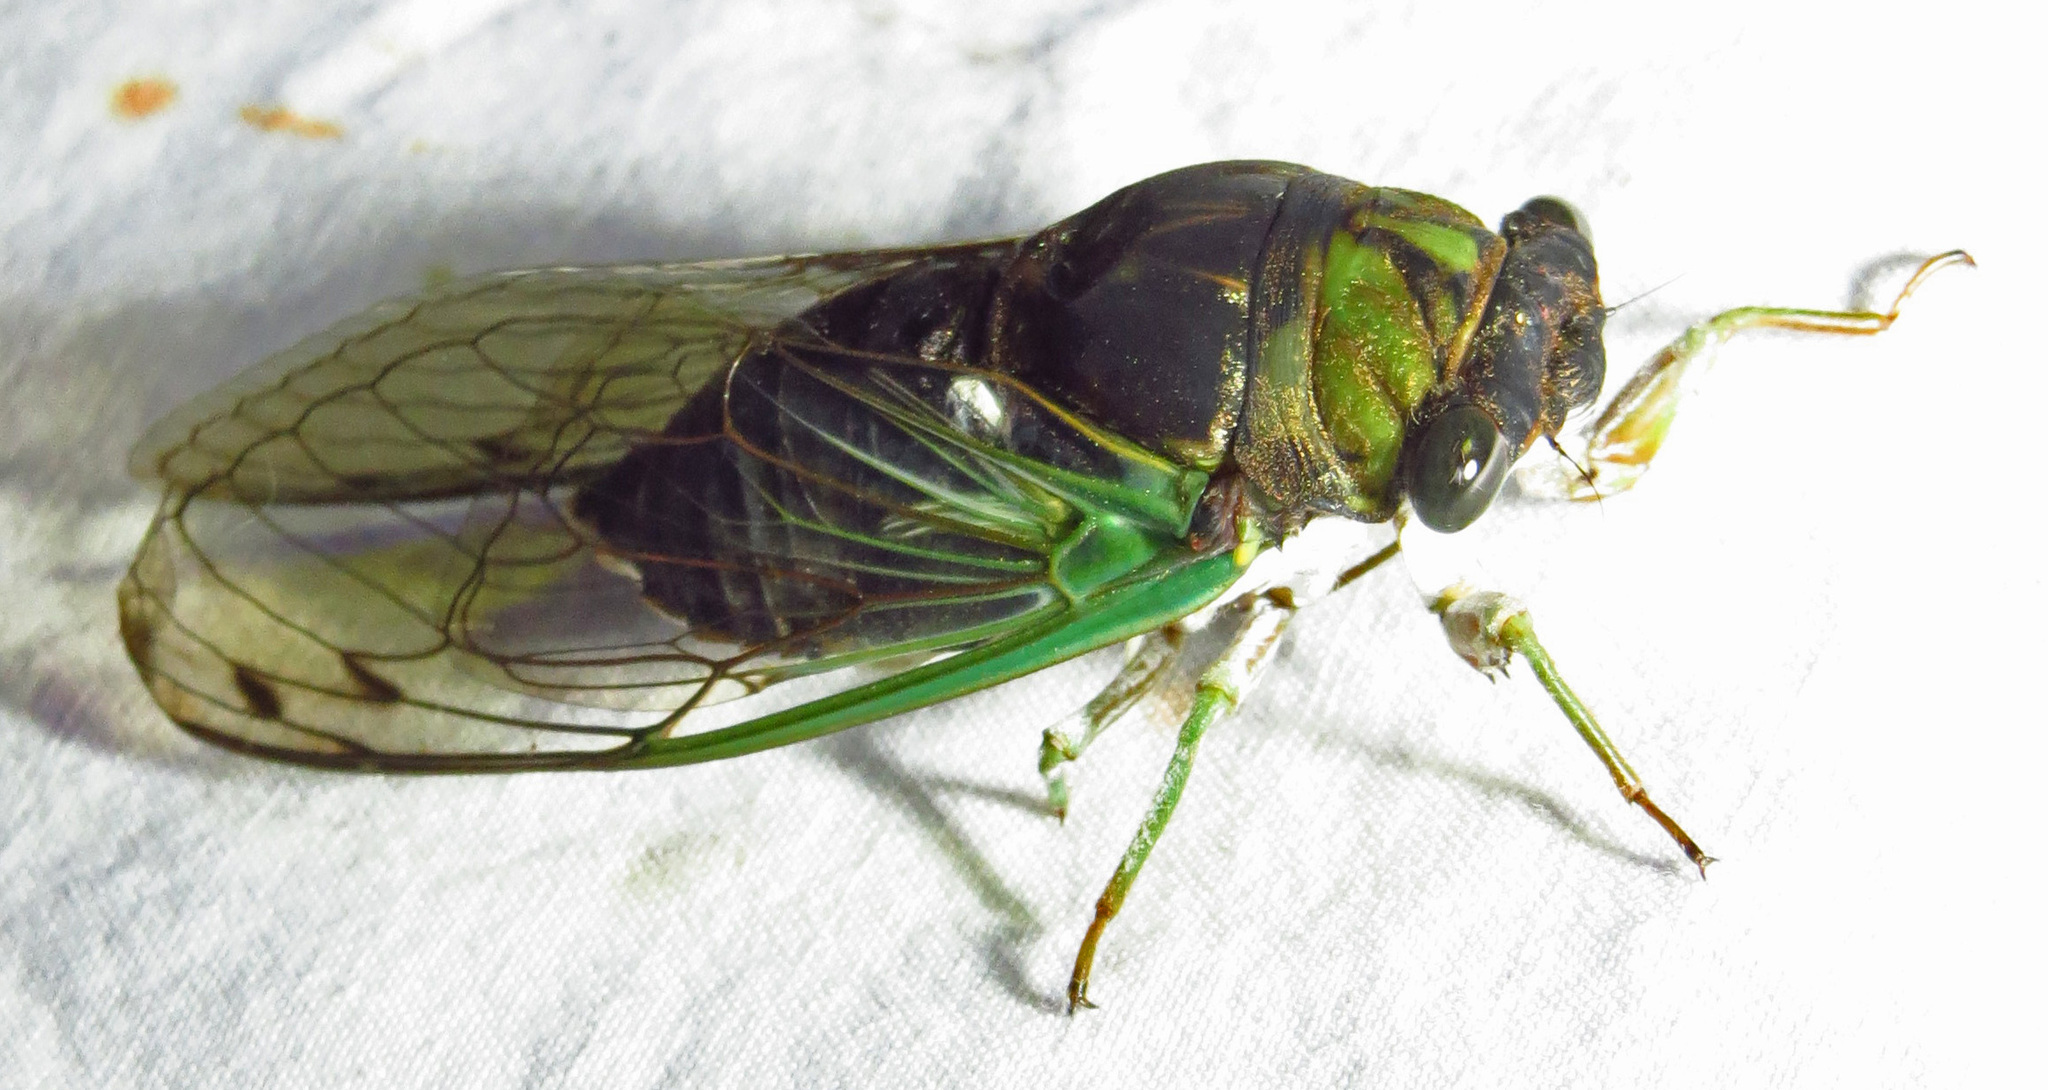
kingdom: Animalia
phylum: Arthropoda
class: Insecta
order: Hemiptera
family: Cicadidae
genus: Neotibicen
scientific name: Neotibicen tibicen
